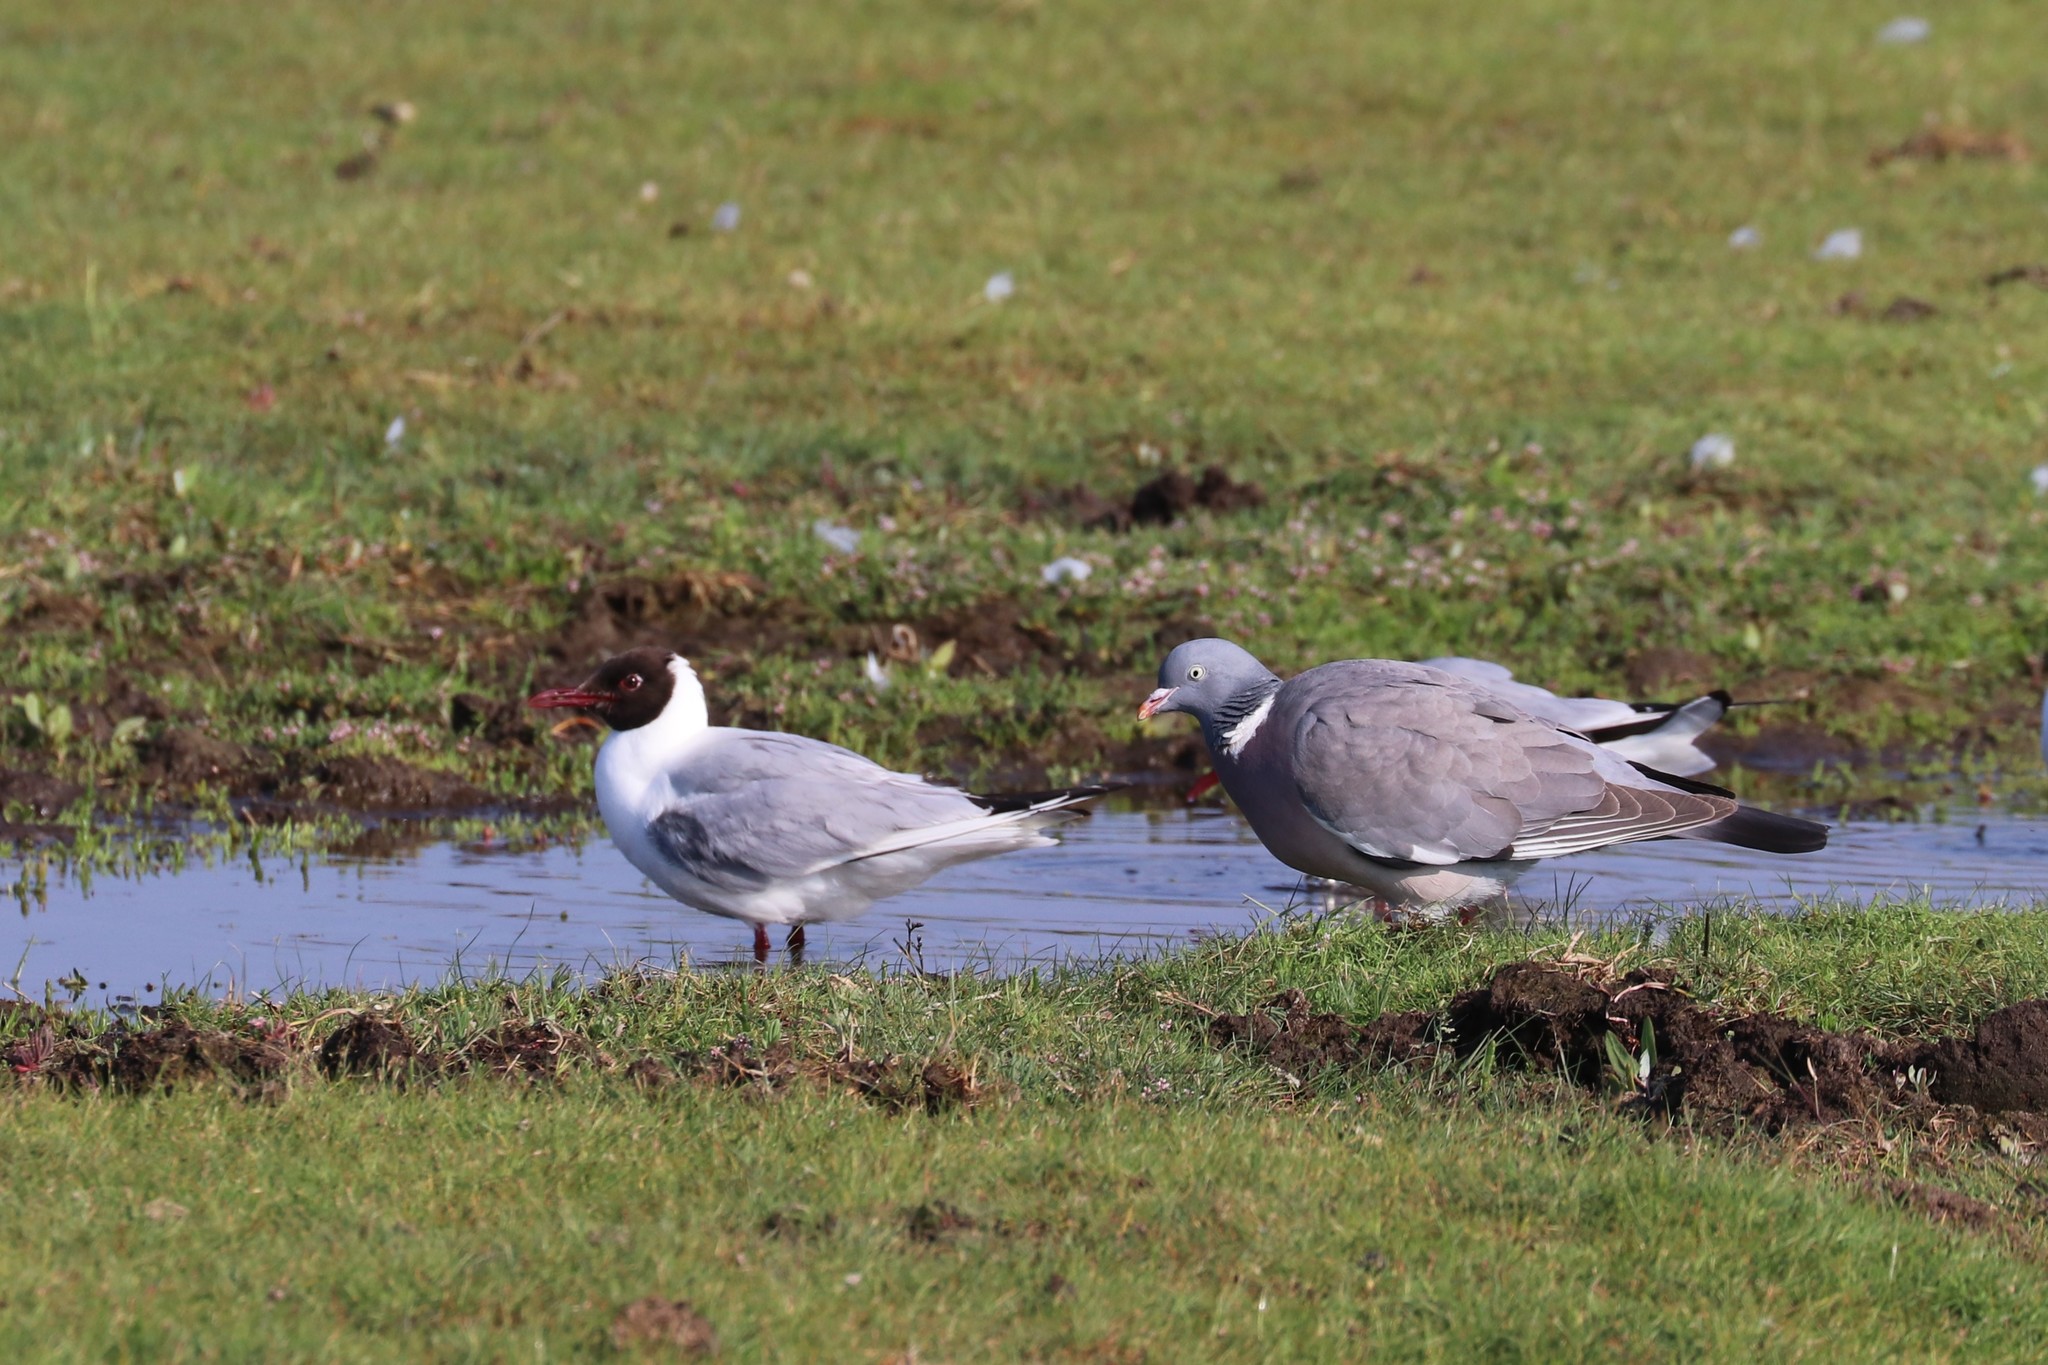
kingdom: Animalia
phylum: Chordata
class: Aves
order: Columbiformes
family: Columbidae
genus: Columba
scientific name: Columba palumbus
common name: Common wood pigeon
